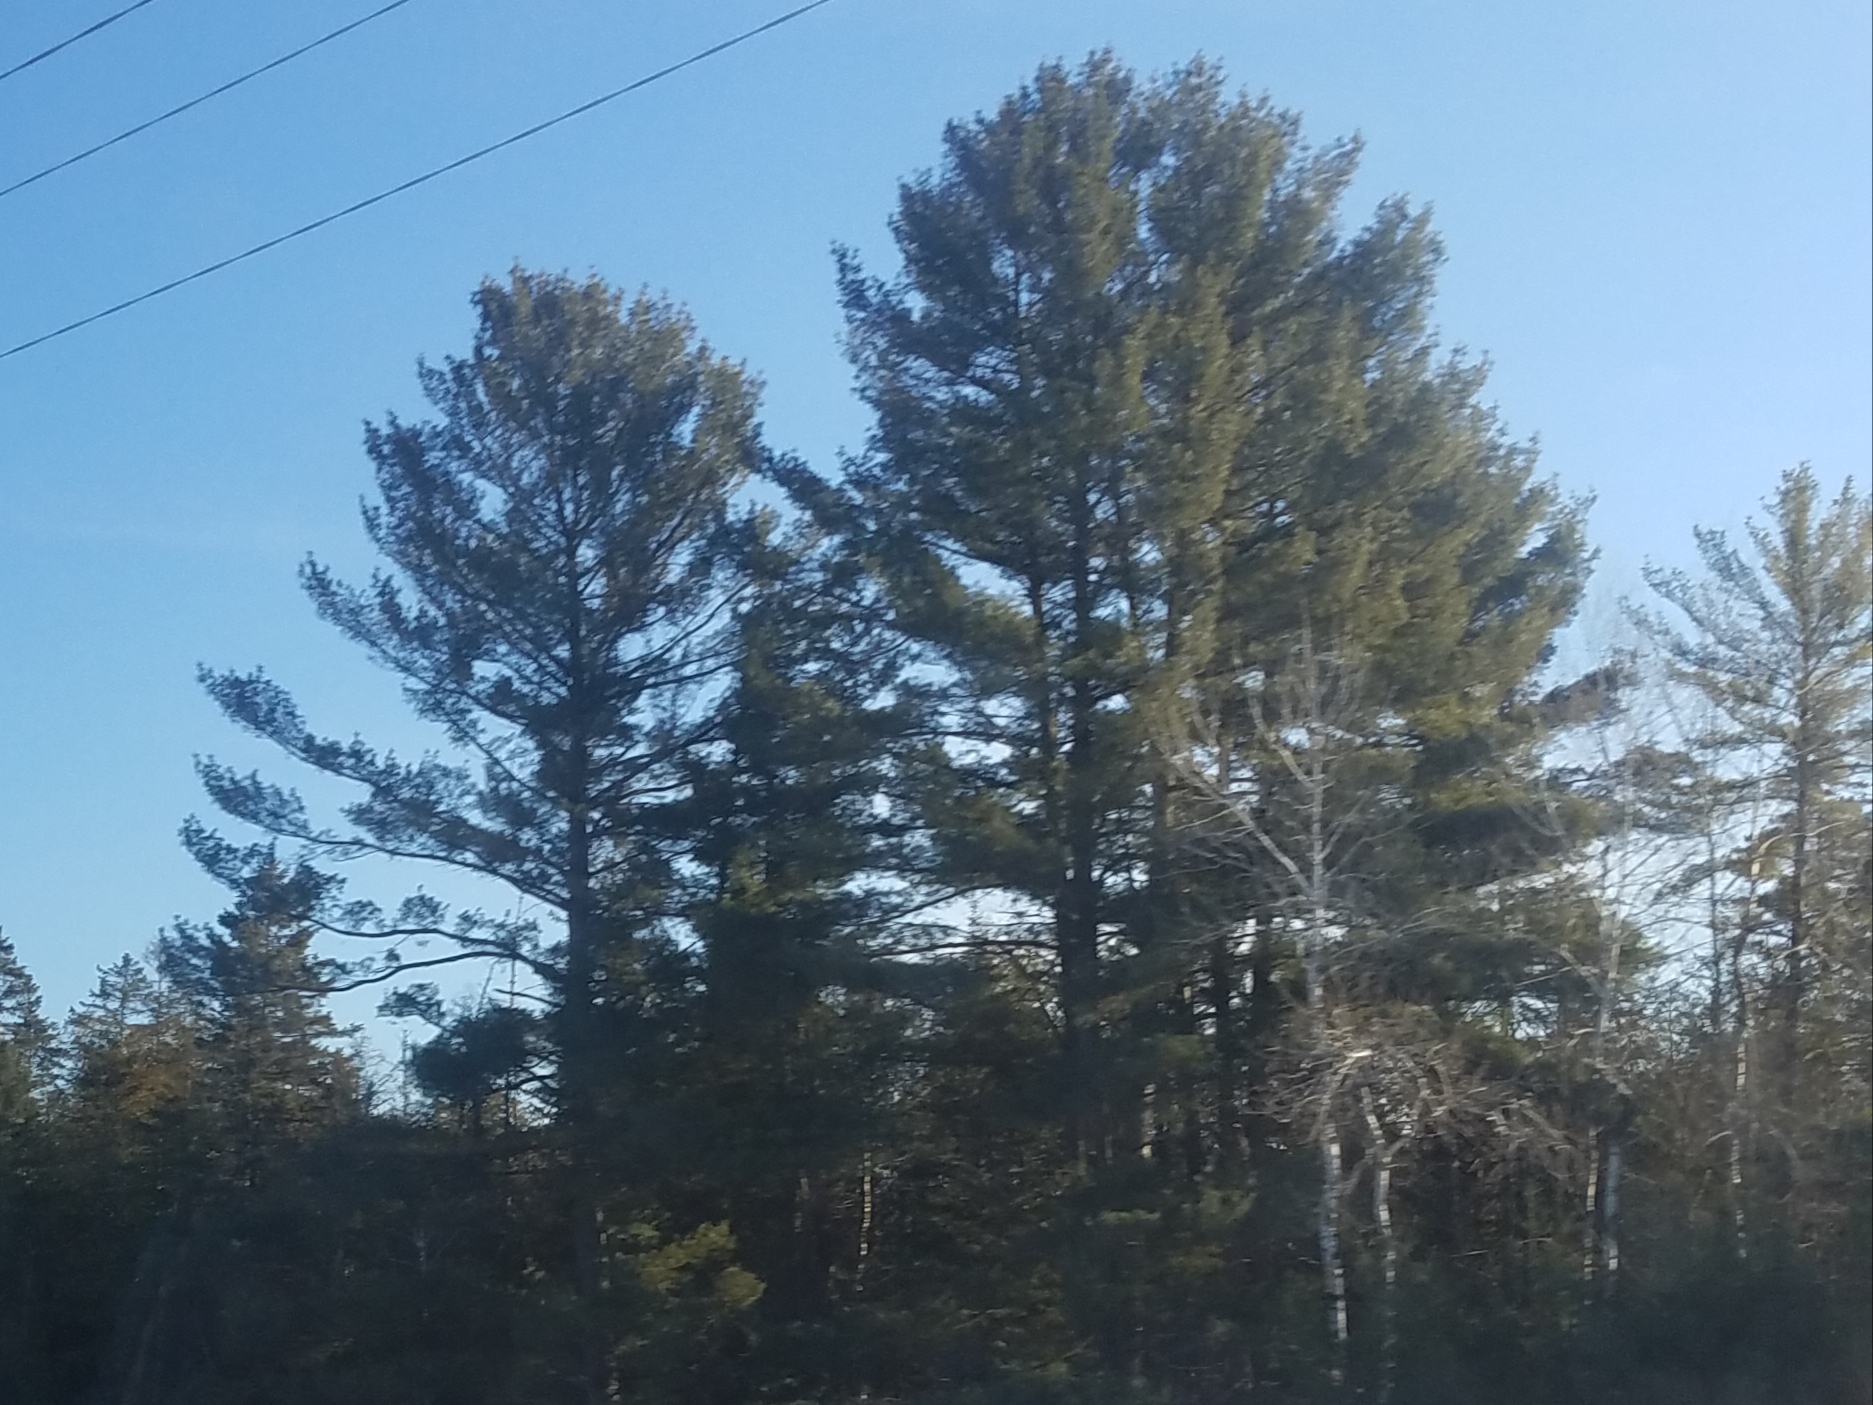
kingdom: Plantae
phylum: Tracheophyta
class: Pinopsida
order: Pinales
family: Pinaceae
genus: Pinus
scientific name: Pinus strobus
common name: Weymouth pine
